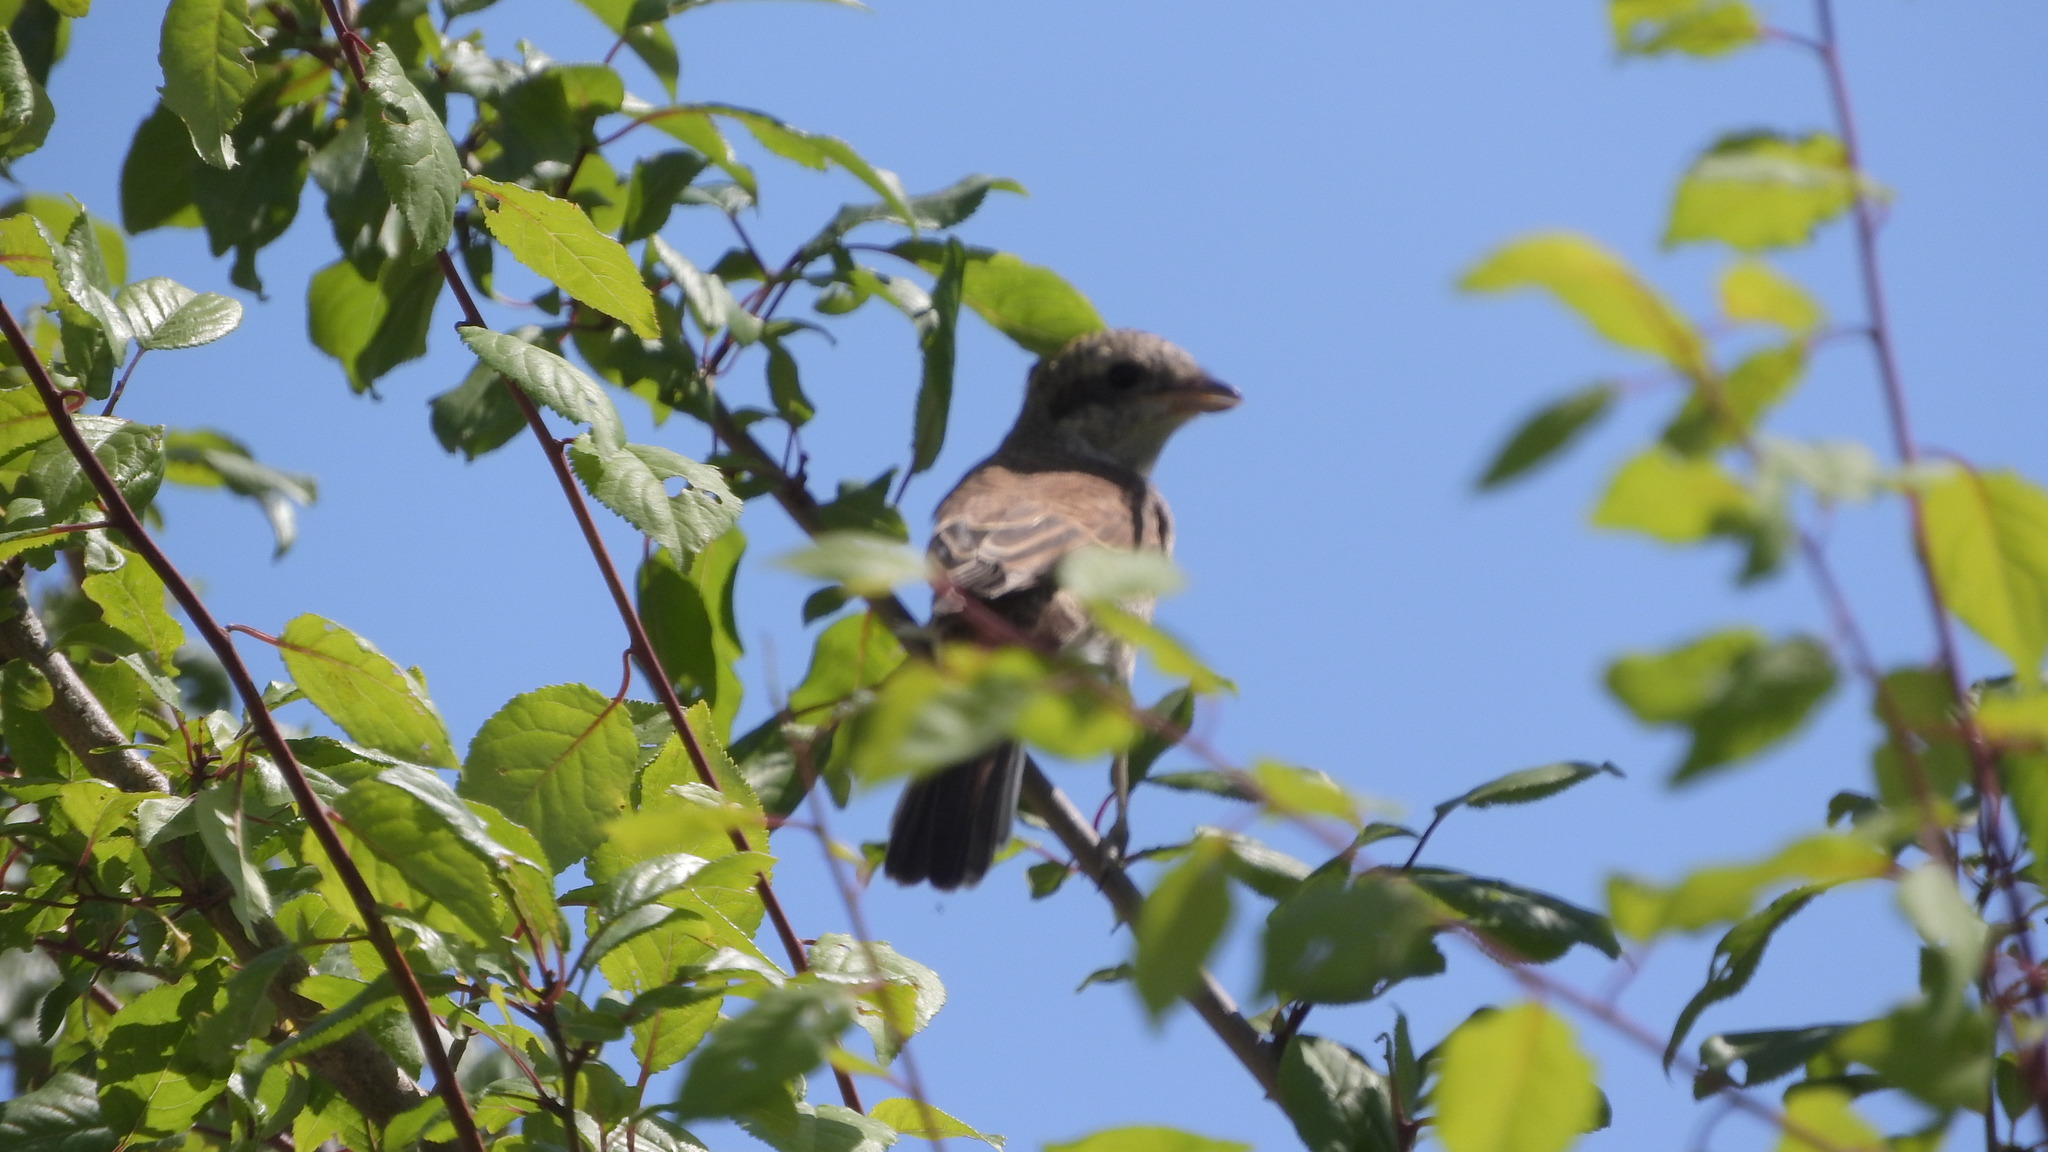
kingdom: Animalia
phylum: Chordata
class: Aves
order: Passeriformes
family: Laniidae
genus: Lanius
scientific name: Lanius collurio
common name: Red-backed shrike
